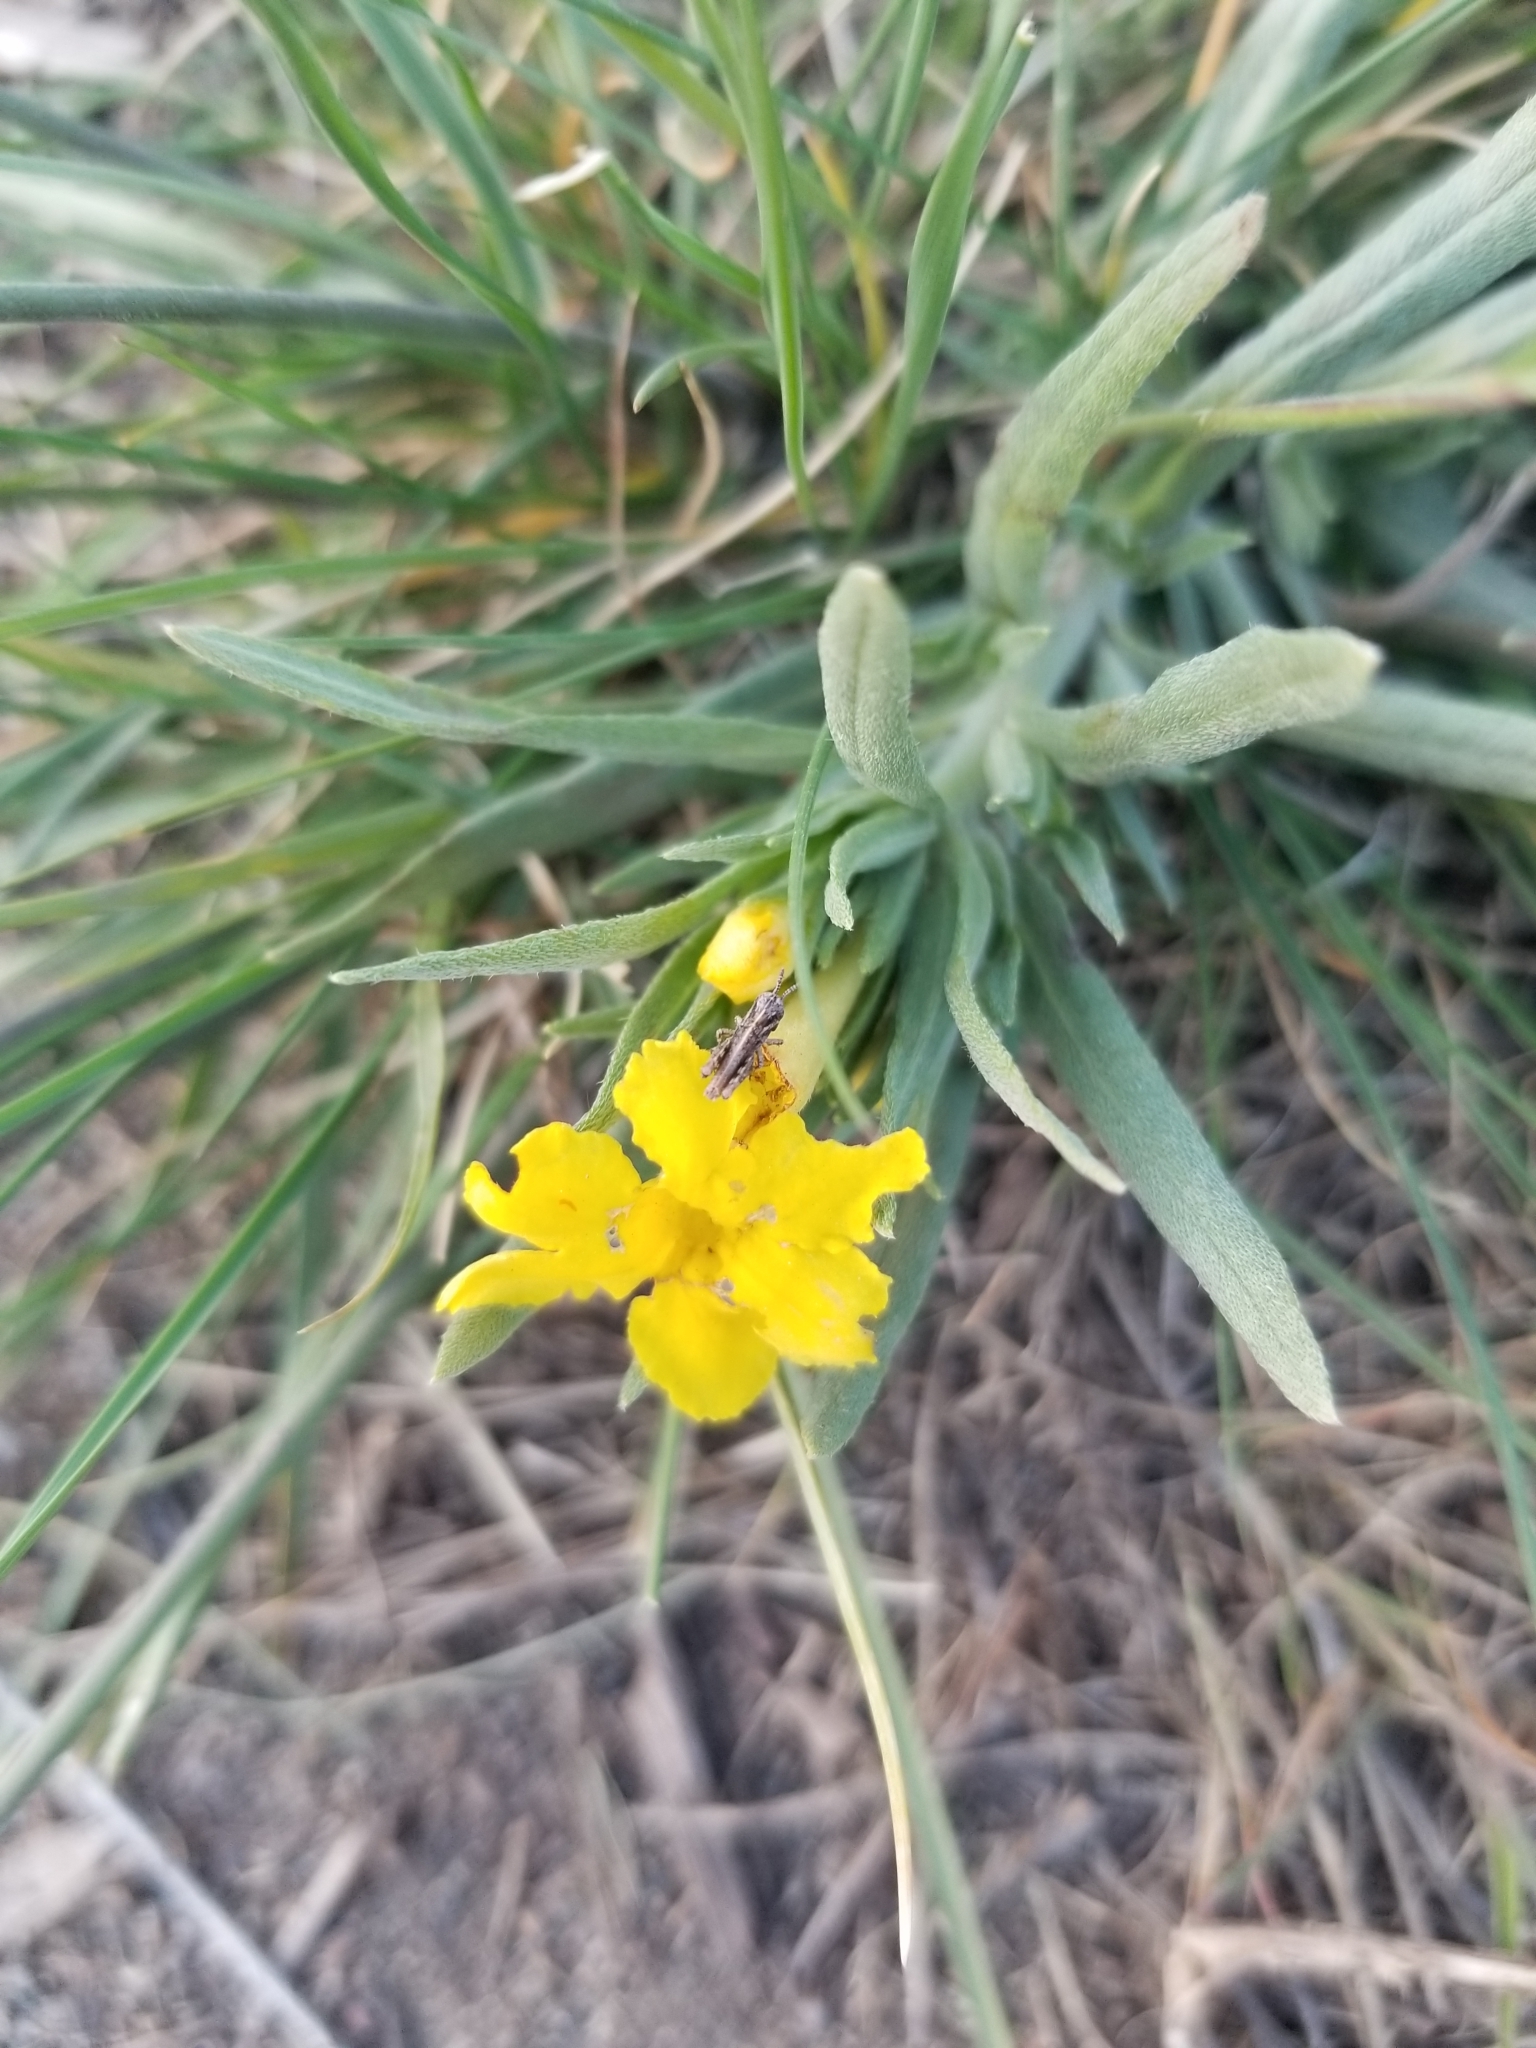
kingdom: Plantae
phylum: Tracheophyta
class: Magnoliopsida
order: Boraginales
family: Boraginaceae
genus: Lithospermum
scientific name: Lithospermum incisum
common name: Fringed gromwell
